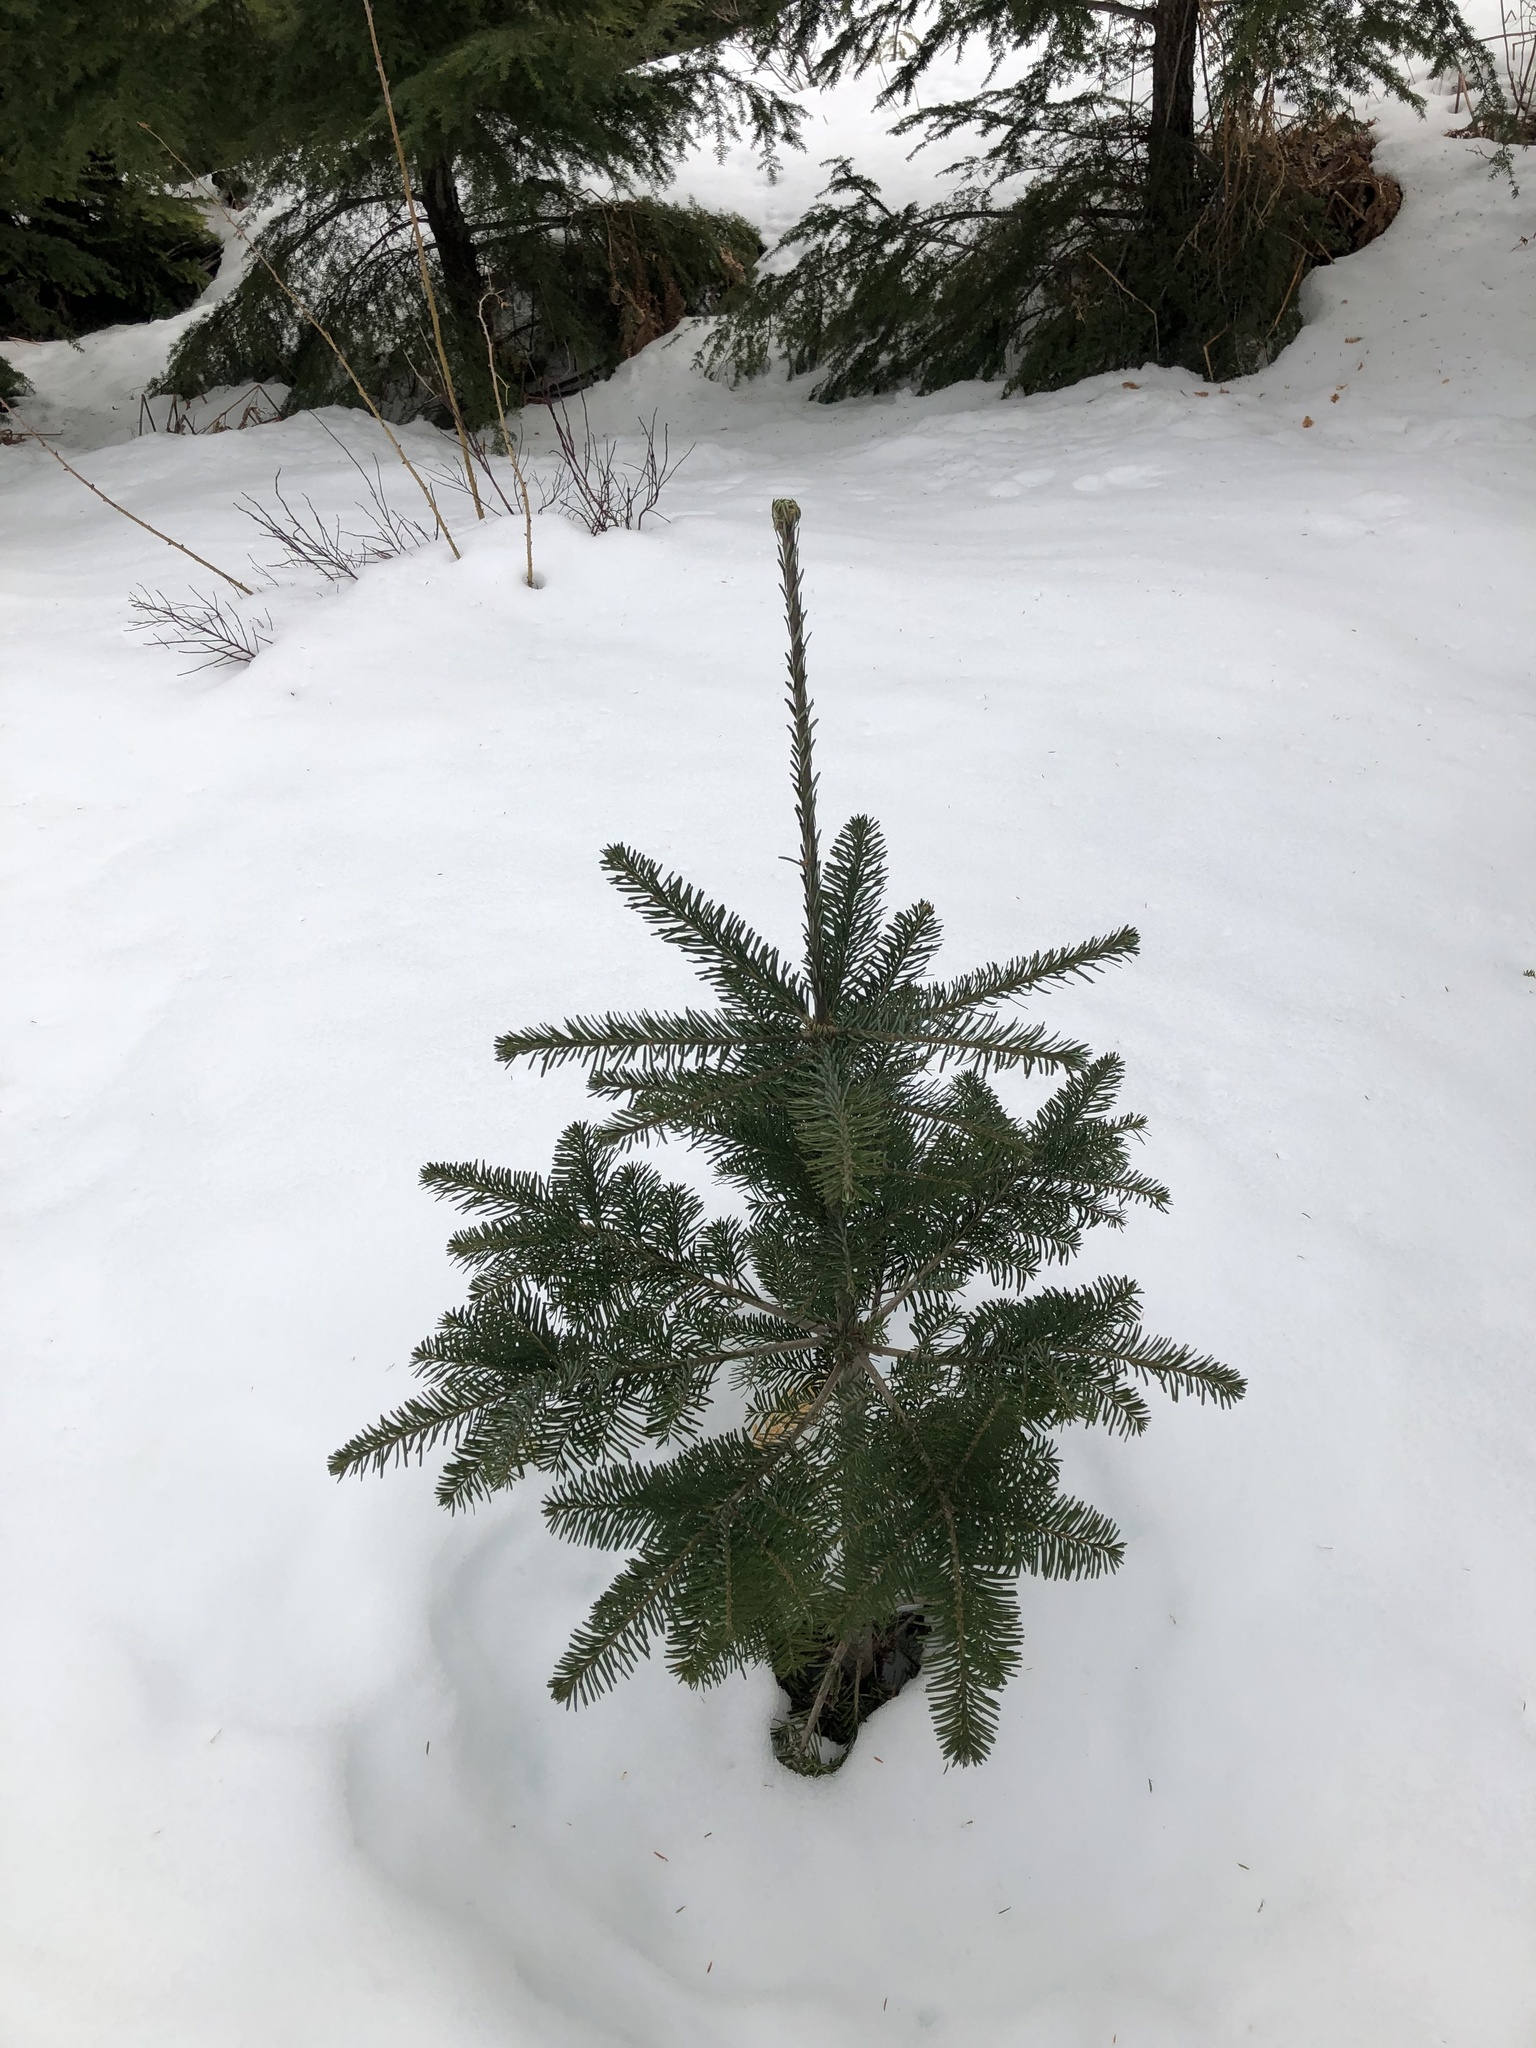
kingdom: Plantae
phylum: Tracheophyta
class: Pinopsida
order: Pinales
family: Pinaceae
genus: Abies
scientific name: Abies amabilis
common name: Pacific silver fir
